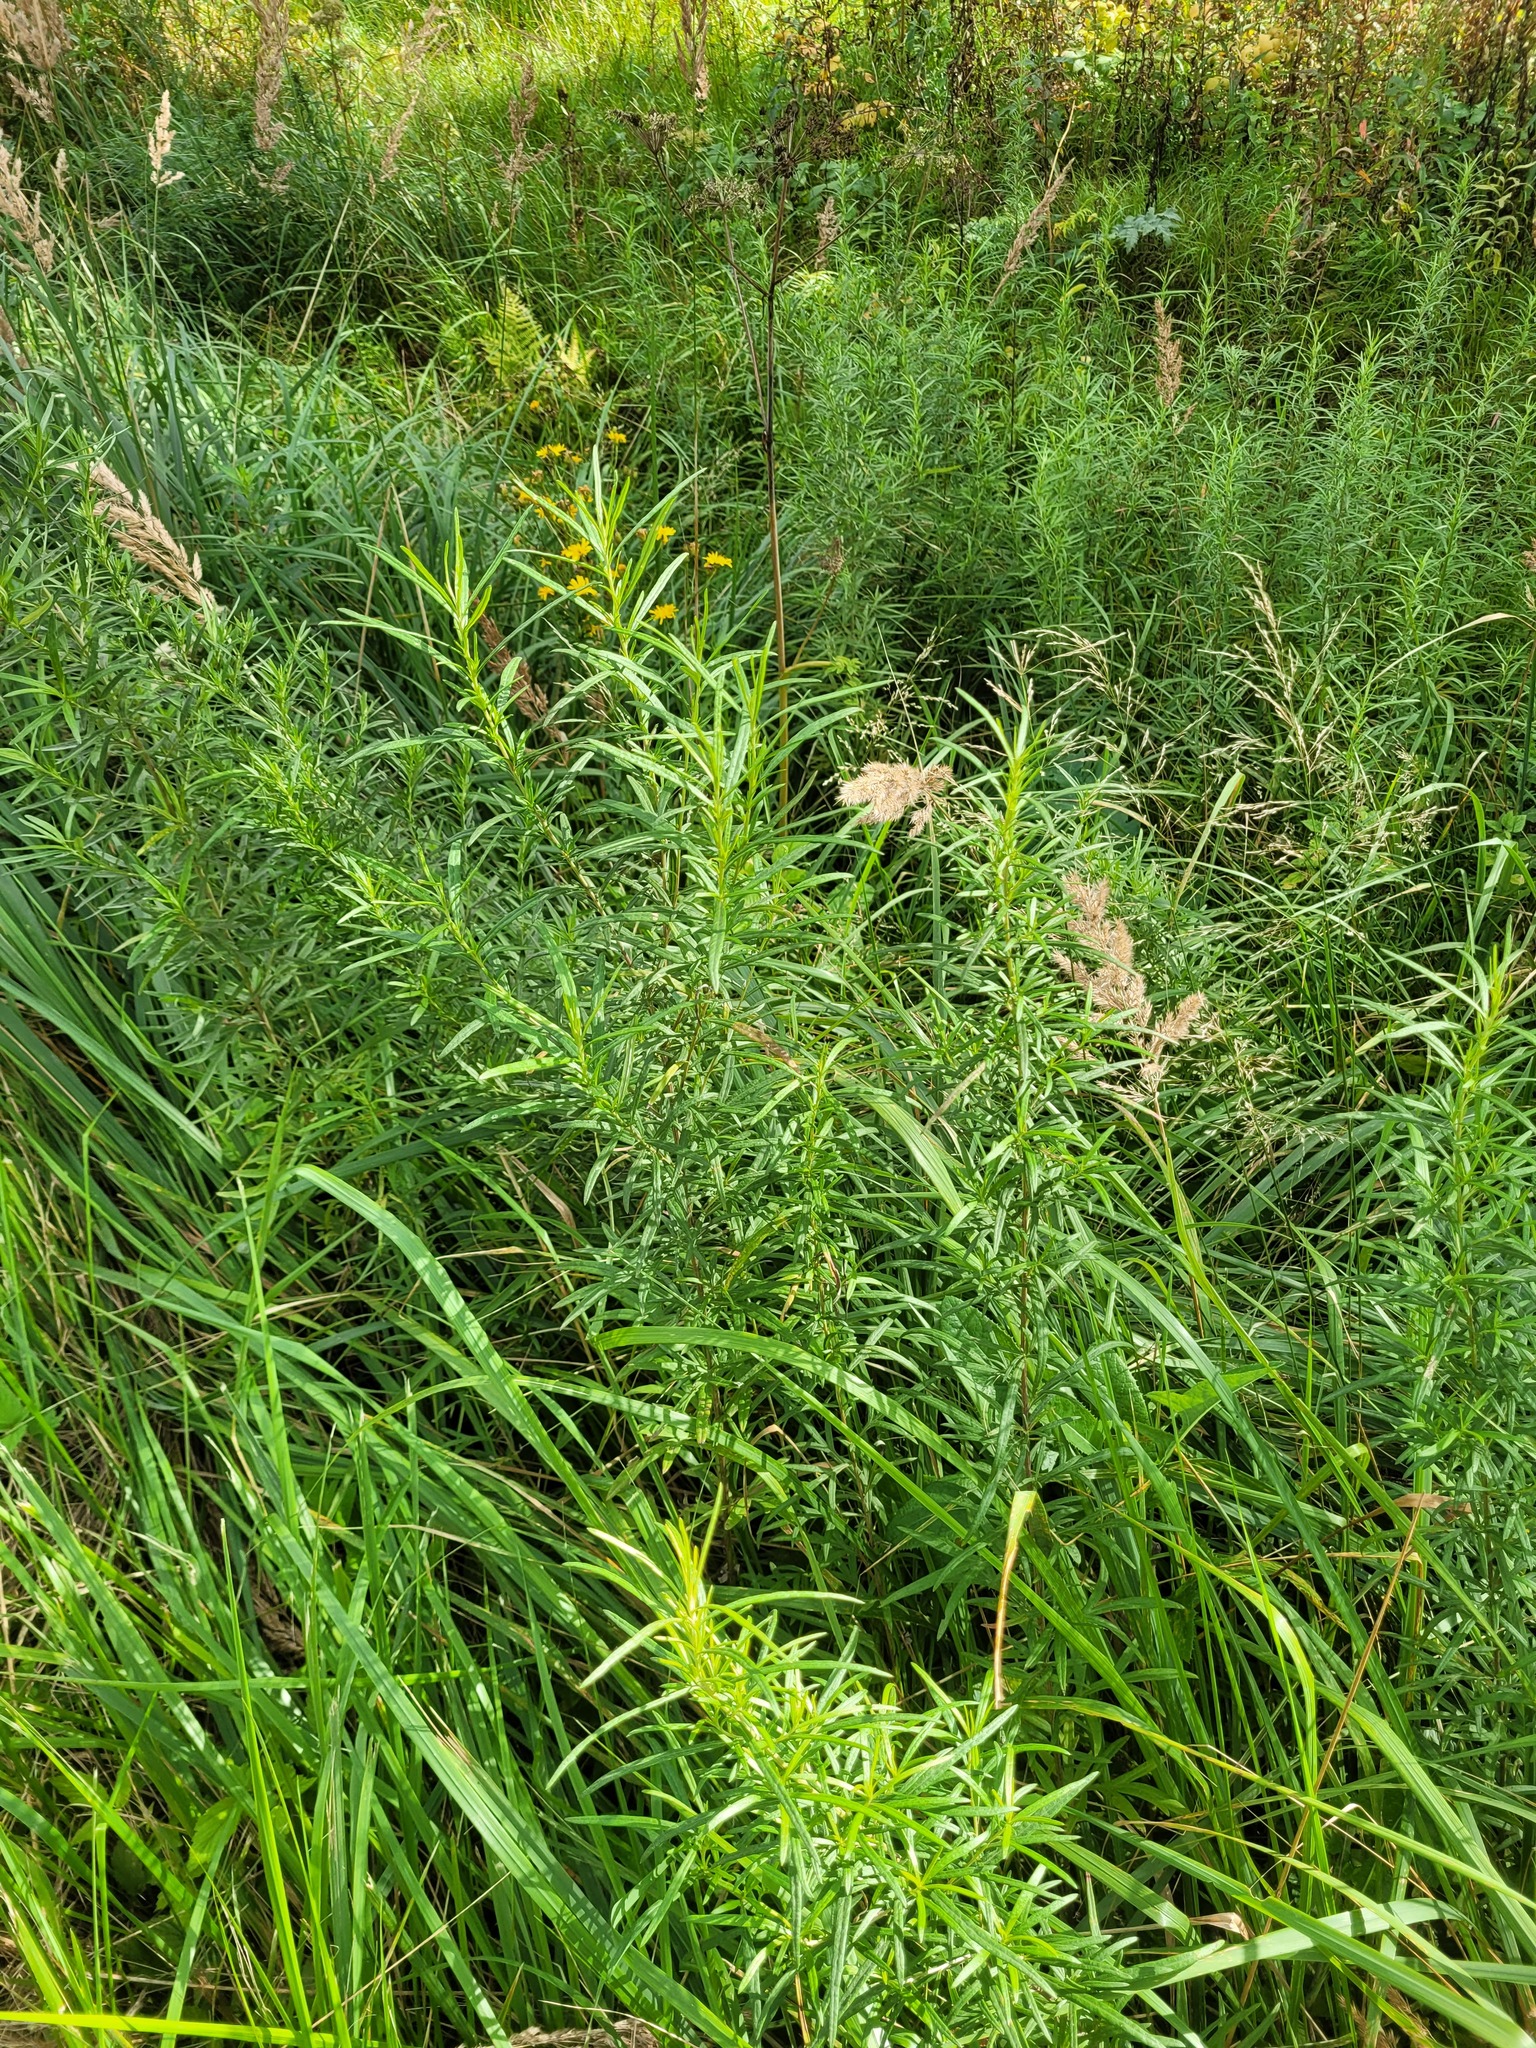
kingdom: Plantae
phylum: Tracheophyta
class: Magnoliopsida
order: Asterales
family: Asteraceae
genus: Artemisia
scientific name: Artemisia umbrosa
